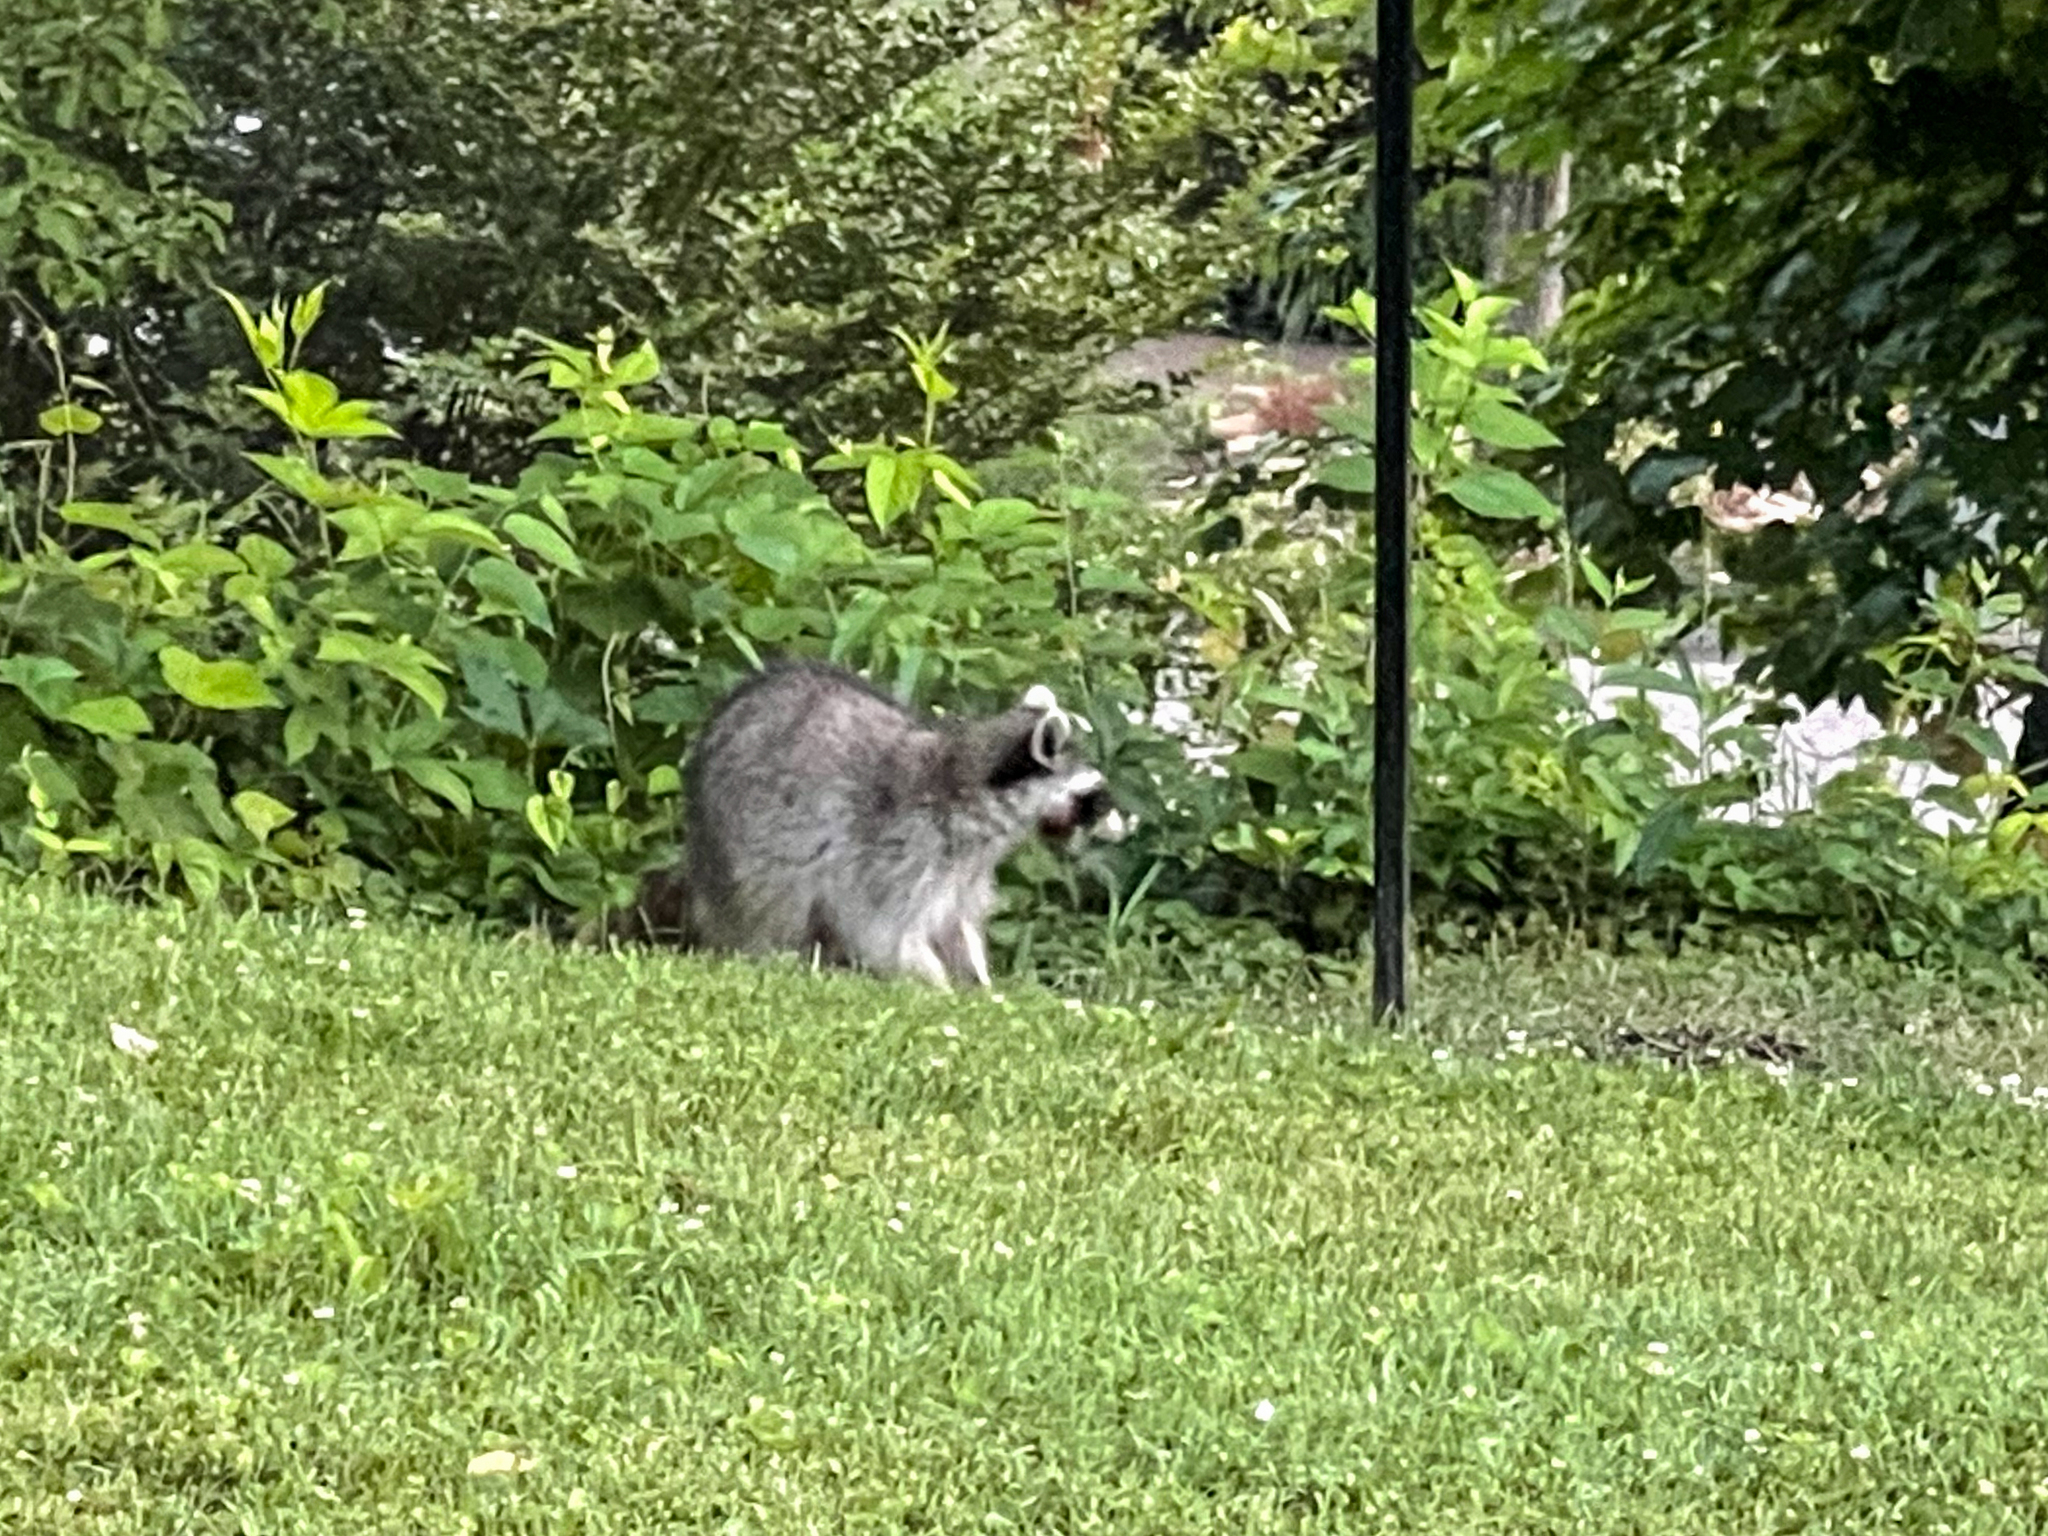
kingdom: Animalia
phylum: Chordata
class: Mammalia
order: Carnivora
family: Procyonidae
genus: Procyon
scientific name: Procyon lotor
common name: Raccoon
